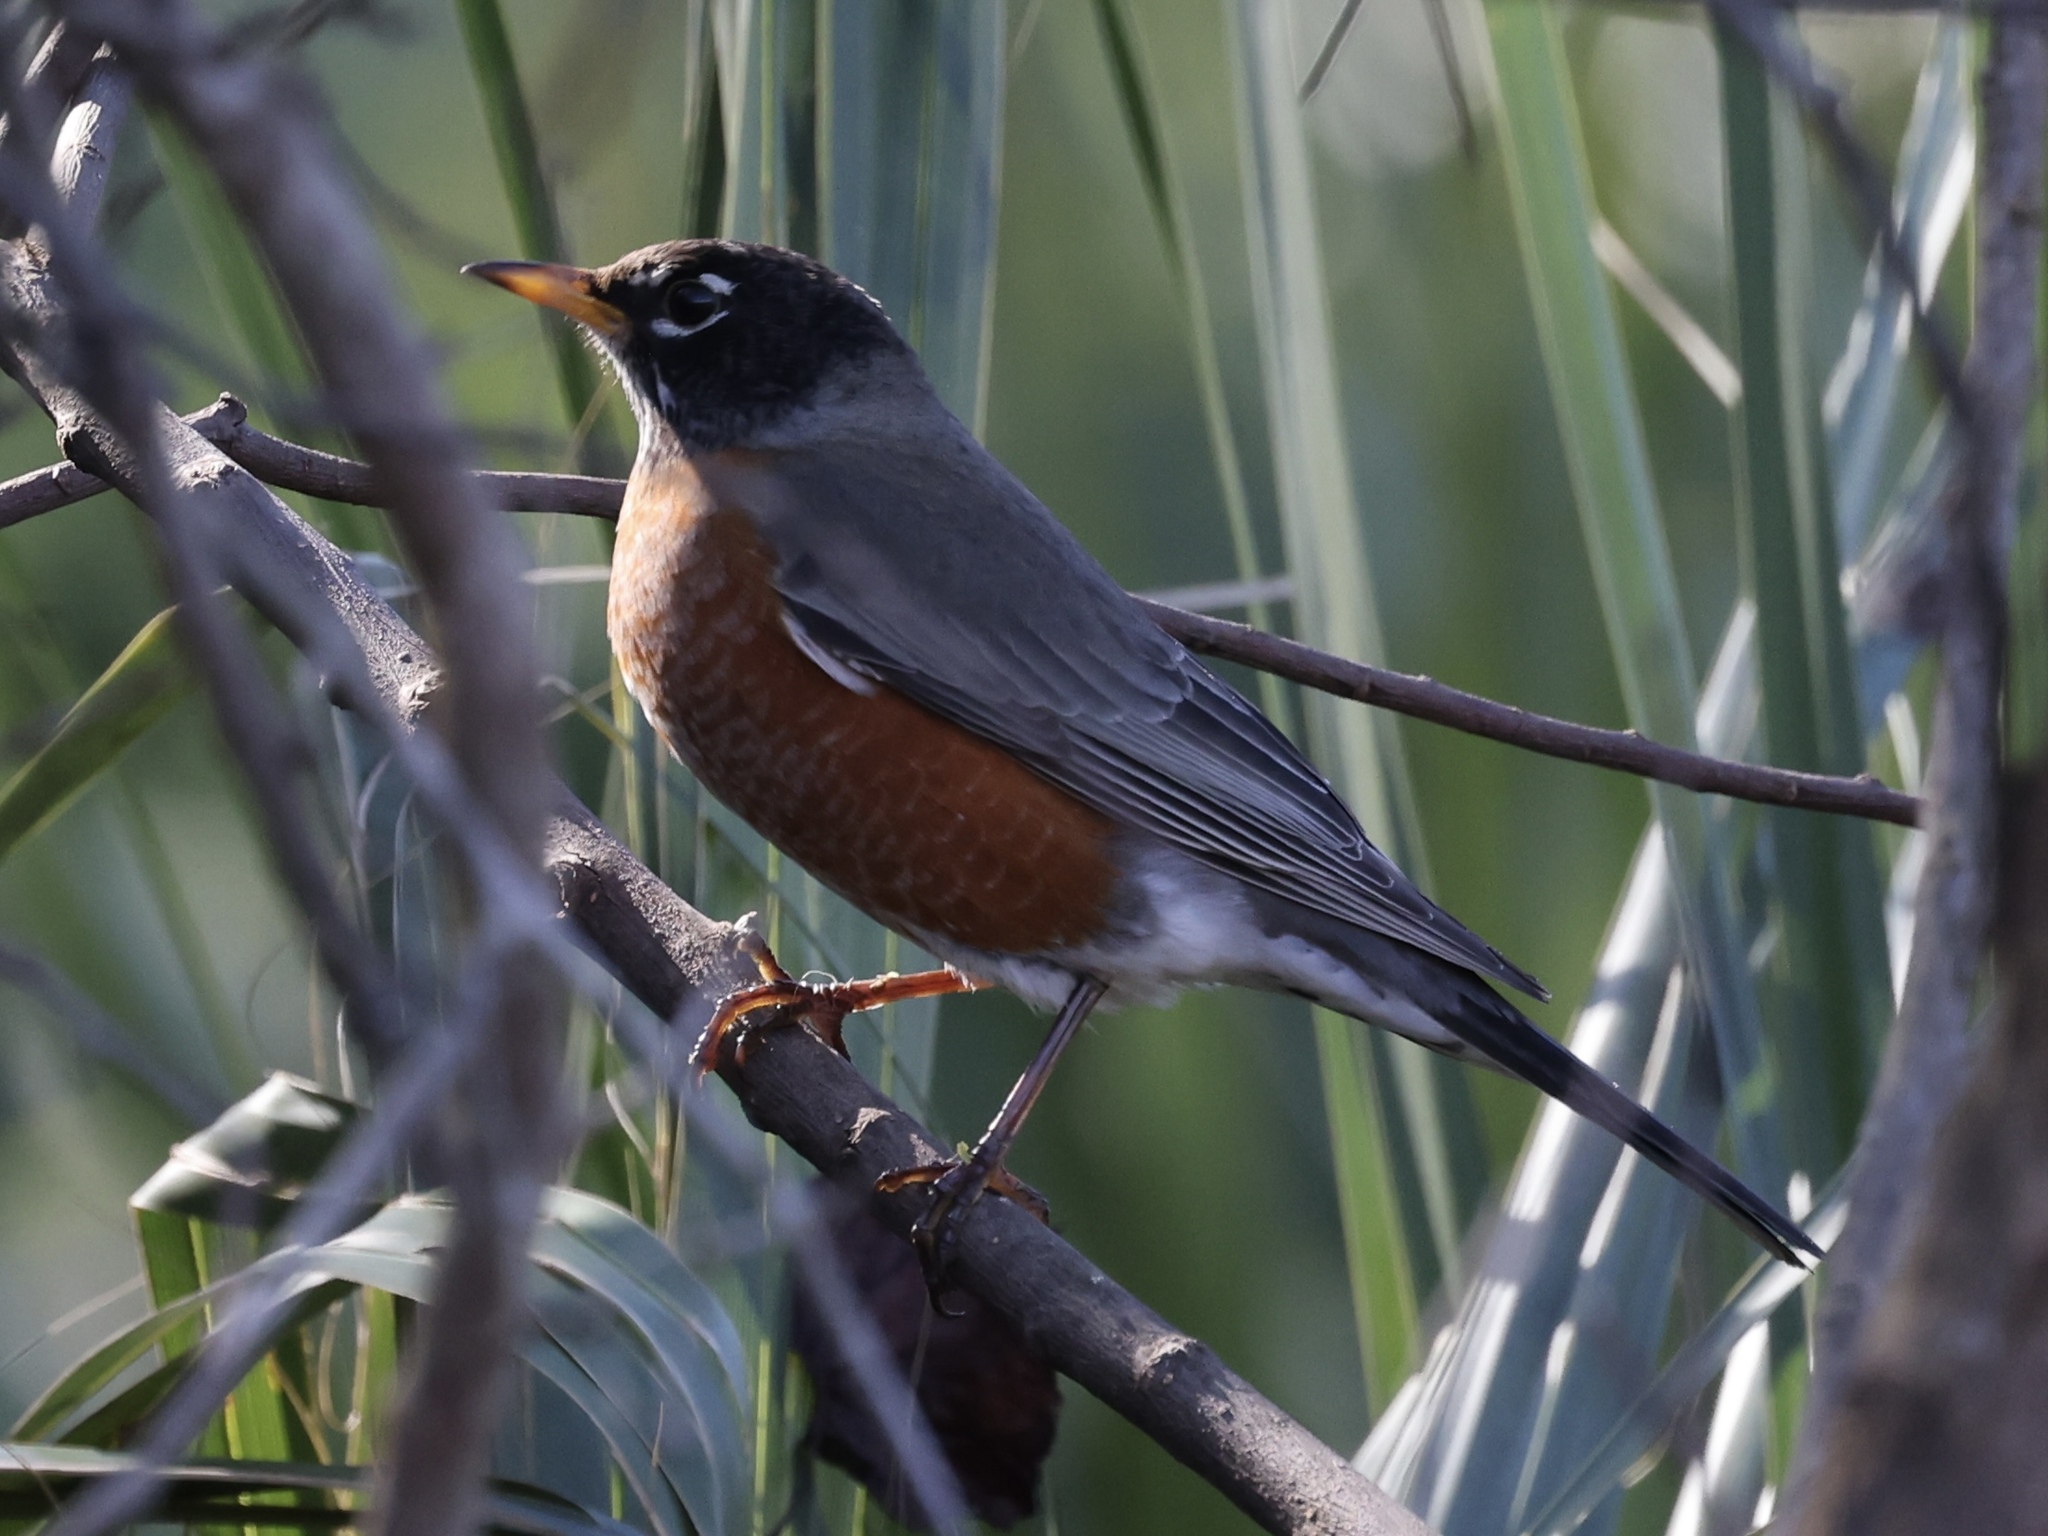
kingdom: Animalia
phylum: Chordata
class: Aves
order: Passeriformes
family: Turdidae
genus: Turdus
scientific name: Turdus migratorius
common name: American robin
